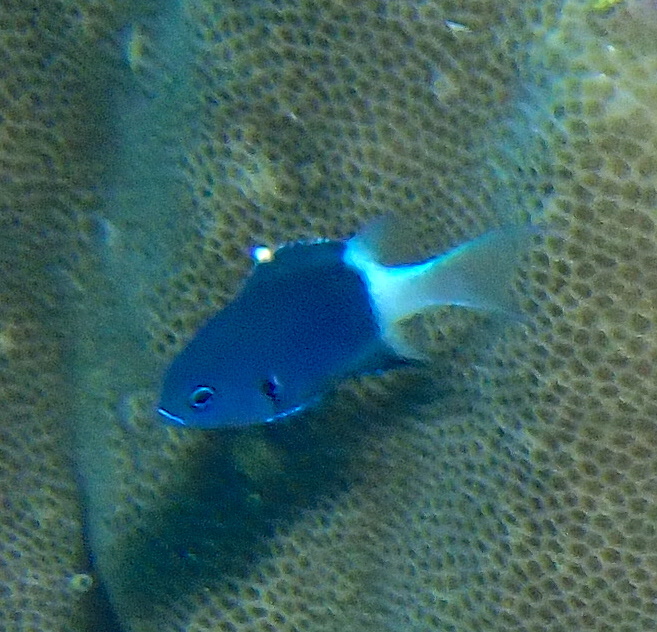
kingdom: Animalia
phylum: Chordata
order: Perciformes
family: Pomacentridae
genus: Pycnochromis
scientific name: Pycnochromis margaritifer
